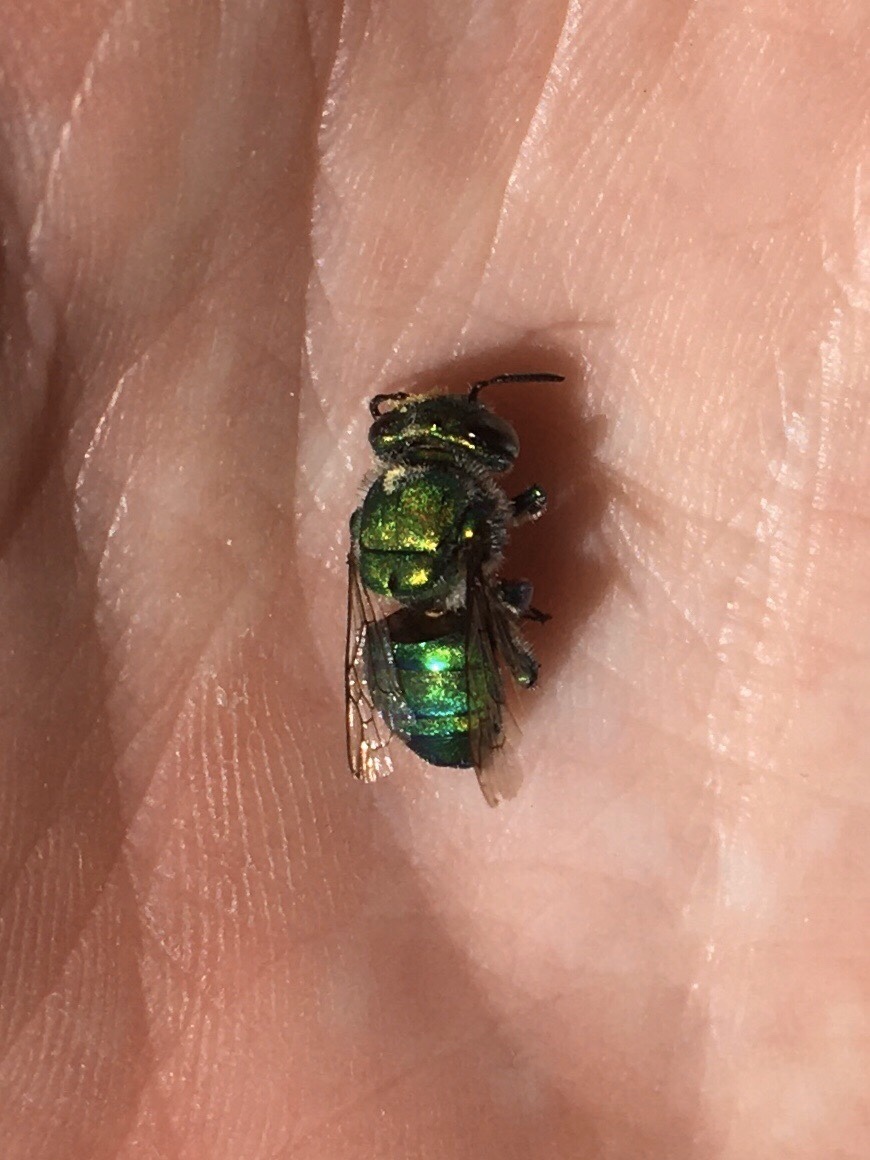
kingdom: Animalia
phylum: Arthropoda
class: Insecta
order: Hymenoptera
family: Apidae
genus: Euglossa
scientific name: Euglossa dilemma
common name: Green orchid bee
